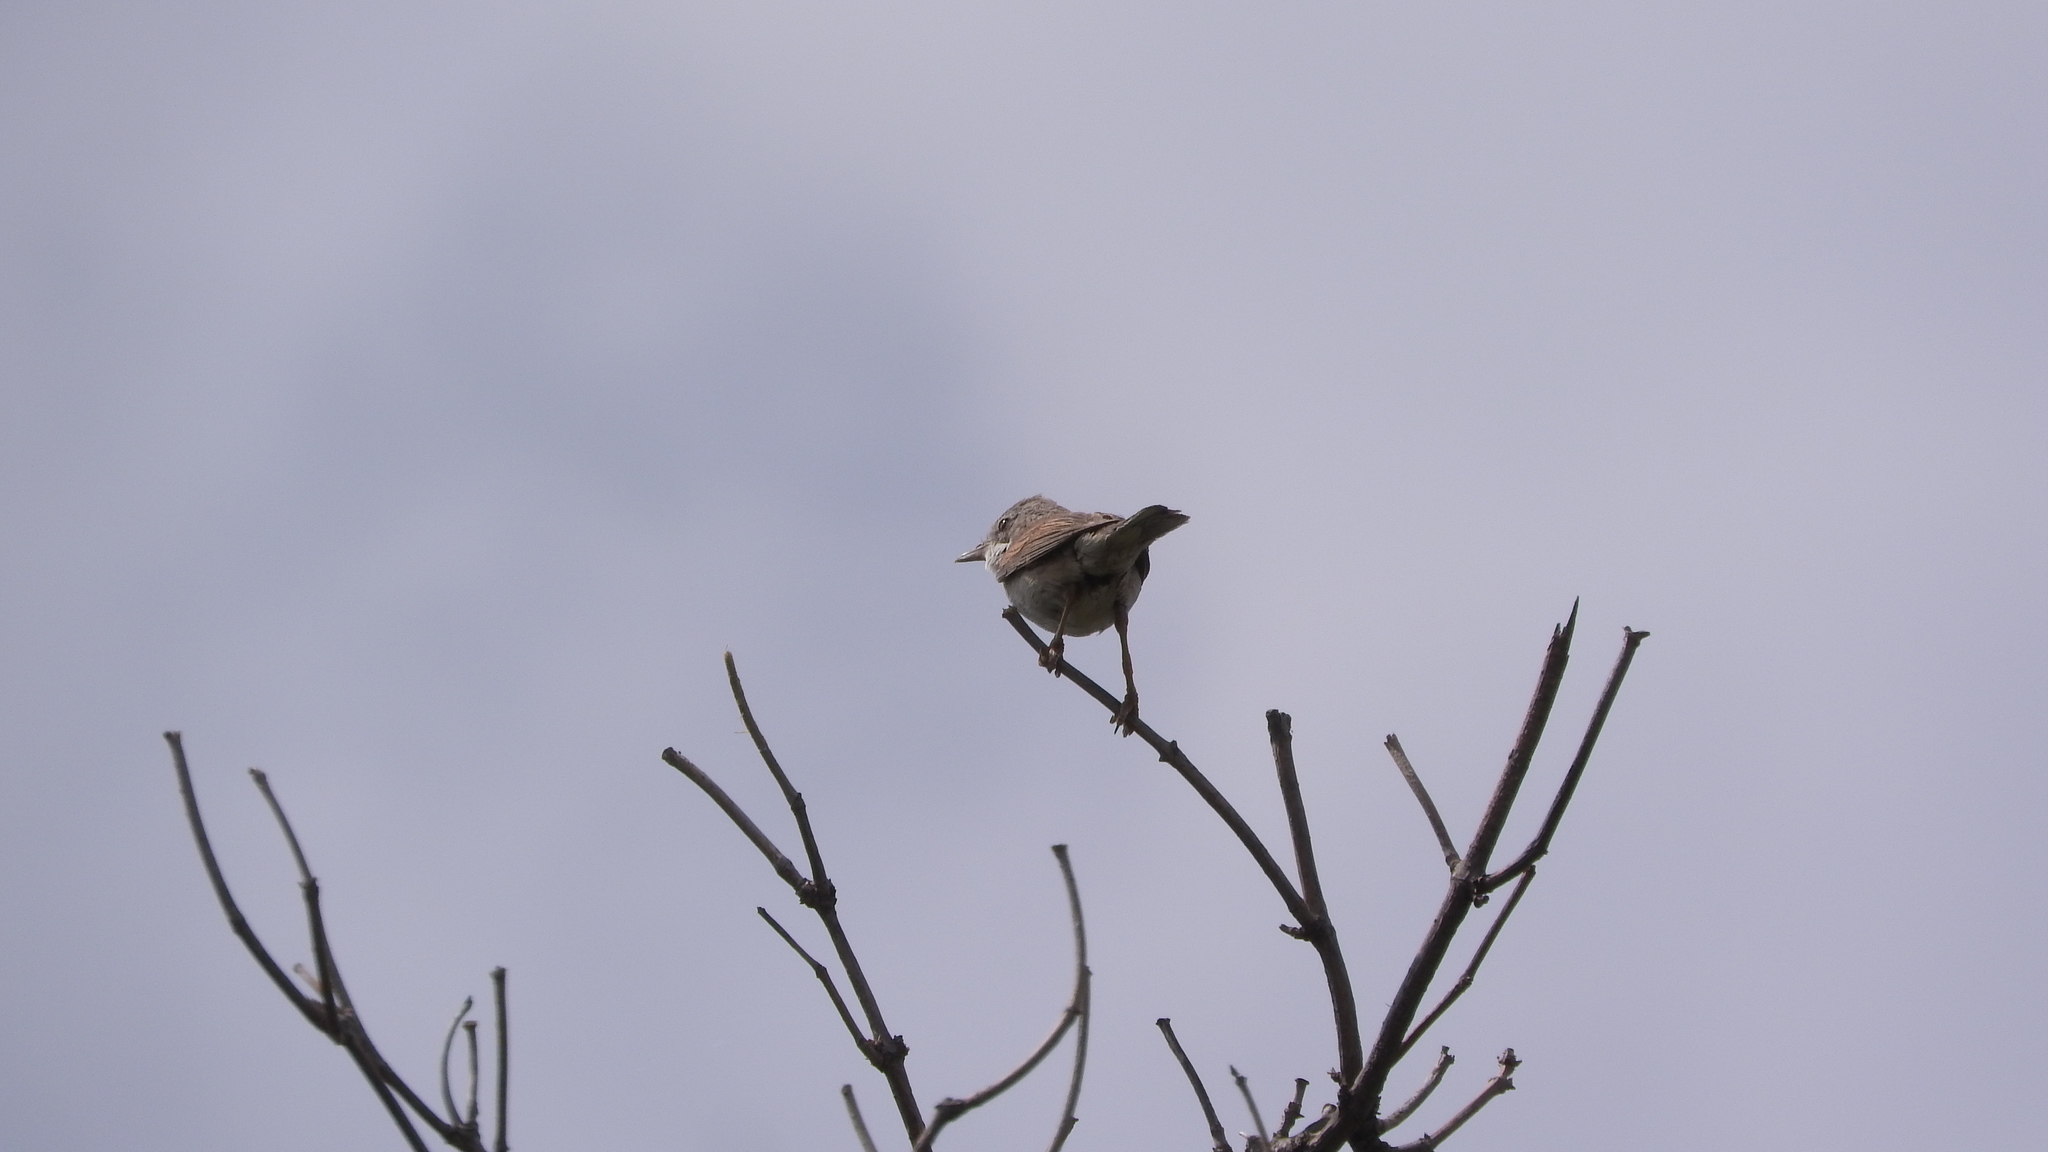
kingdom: Animalia
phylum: Chordata
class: Aves
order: Passeriformes
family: Sylviidae
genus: Sylvia
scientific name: Sylvia communis
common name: Common whitethroat
